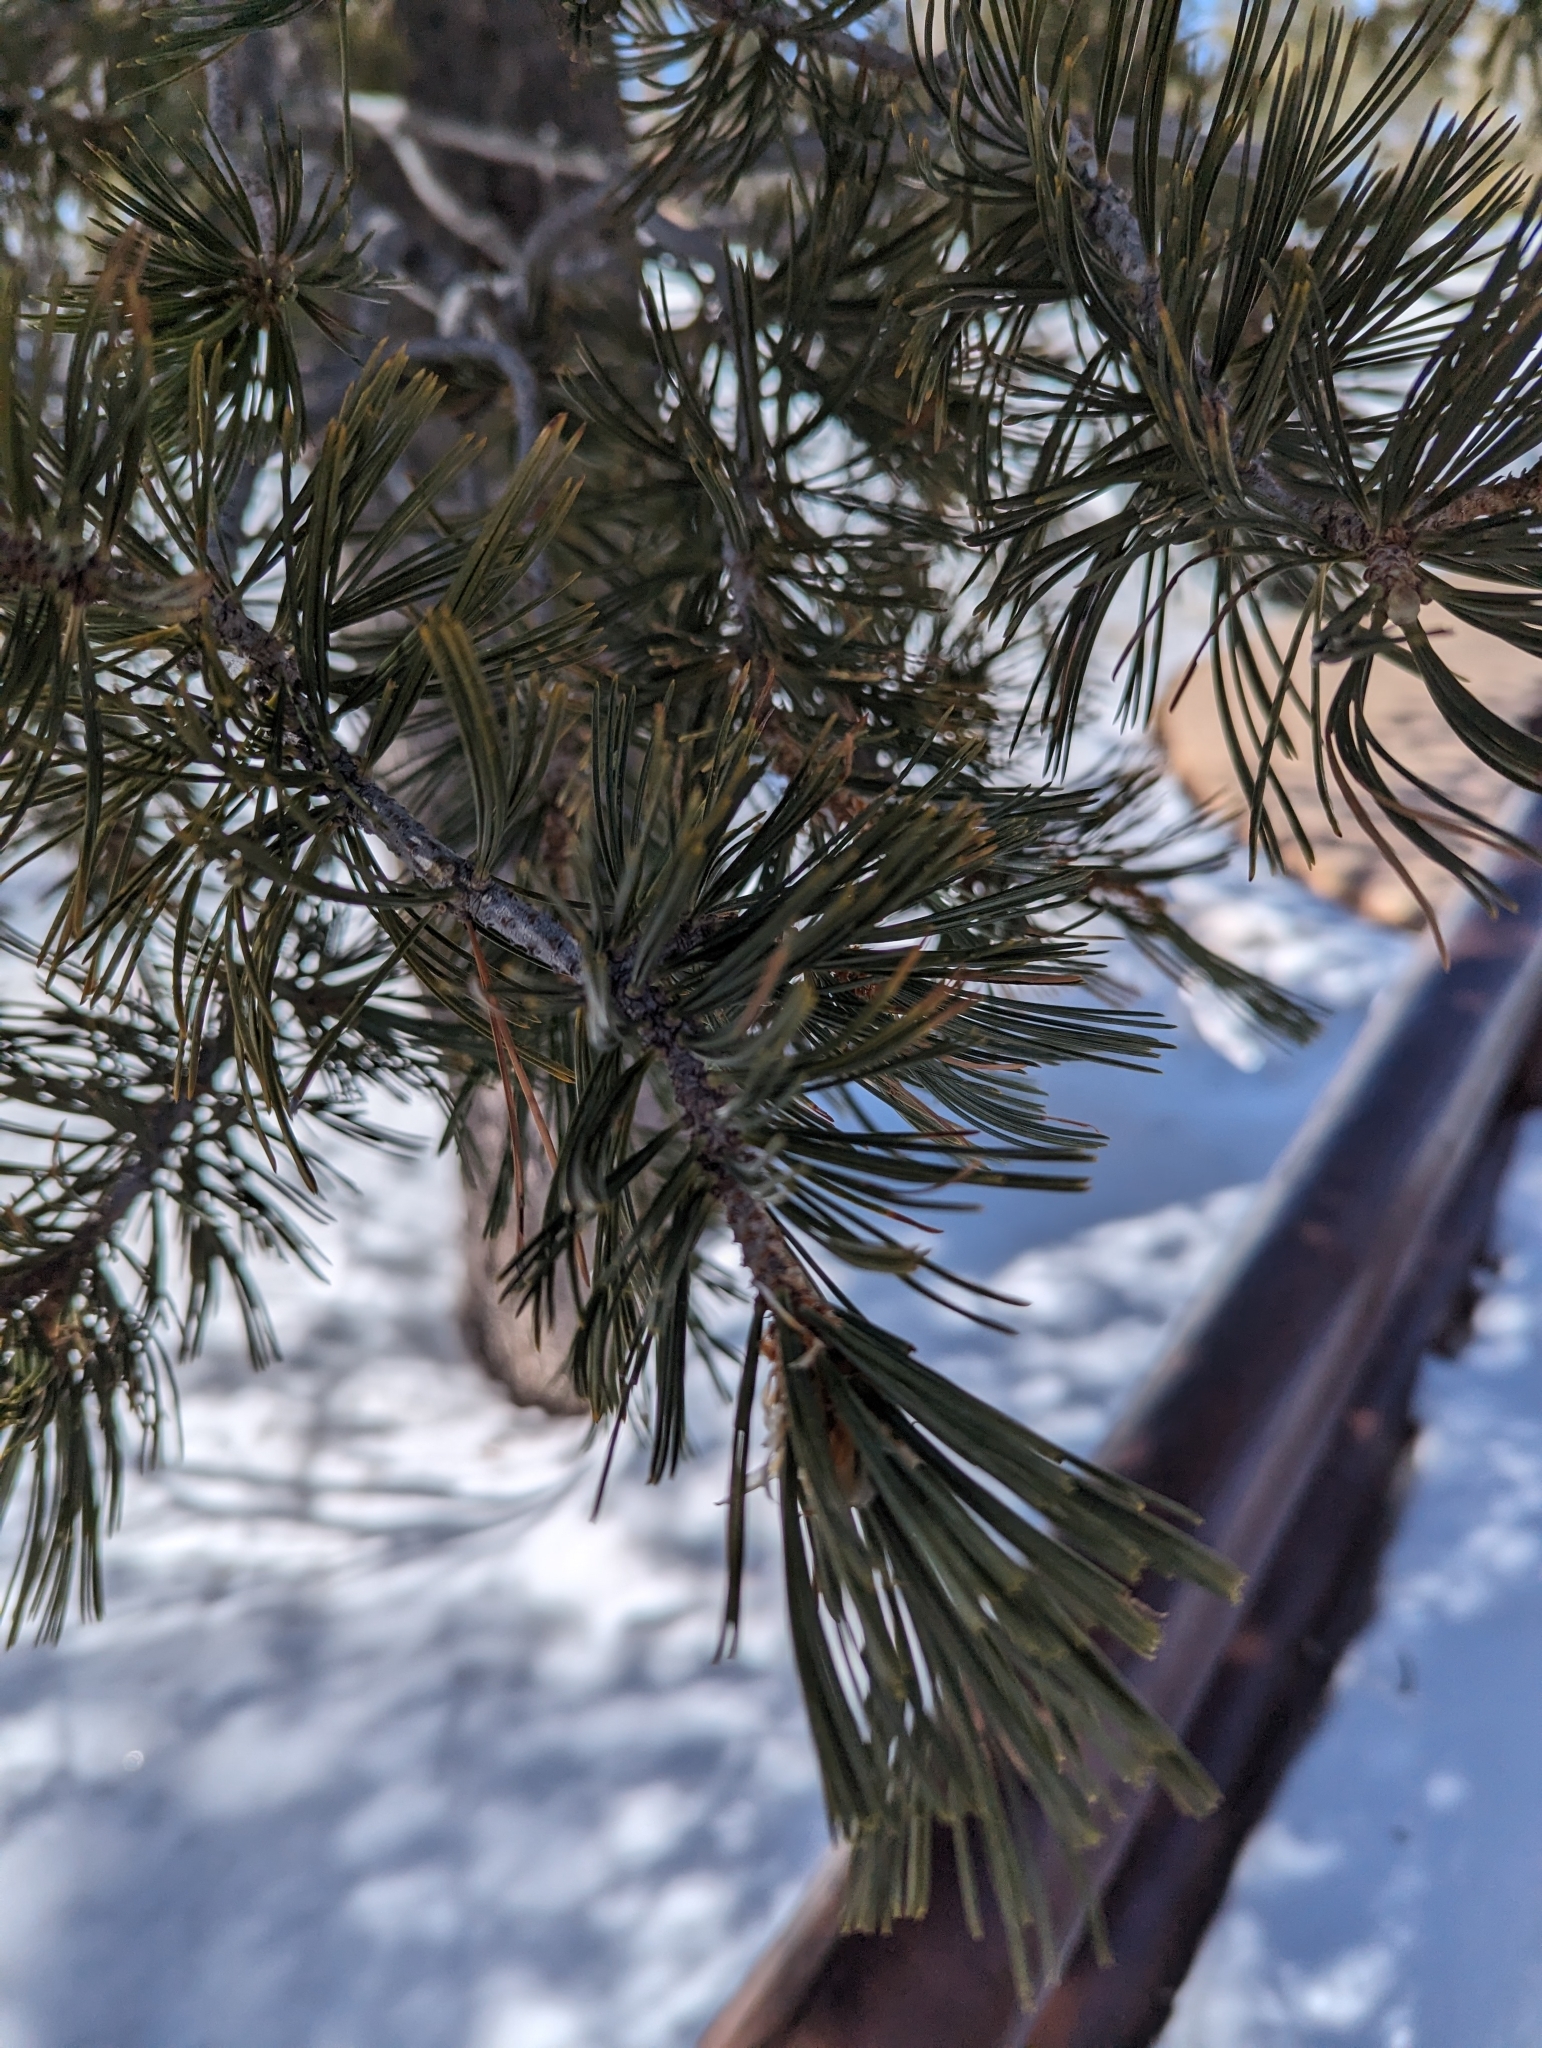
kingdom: Plantae
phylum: Tracheophyta
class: Pinopsida
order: Pinales
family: Pinaceae
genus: Pinus
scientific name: Pinus flexilis
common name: Limber pine
